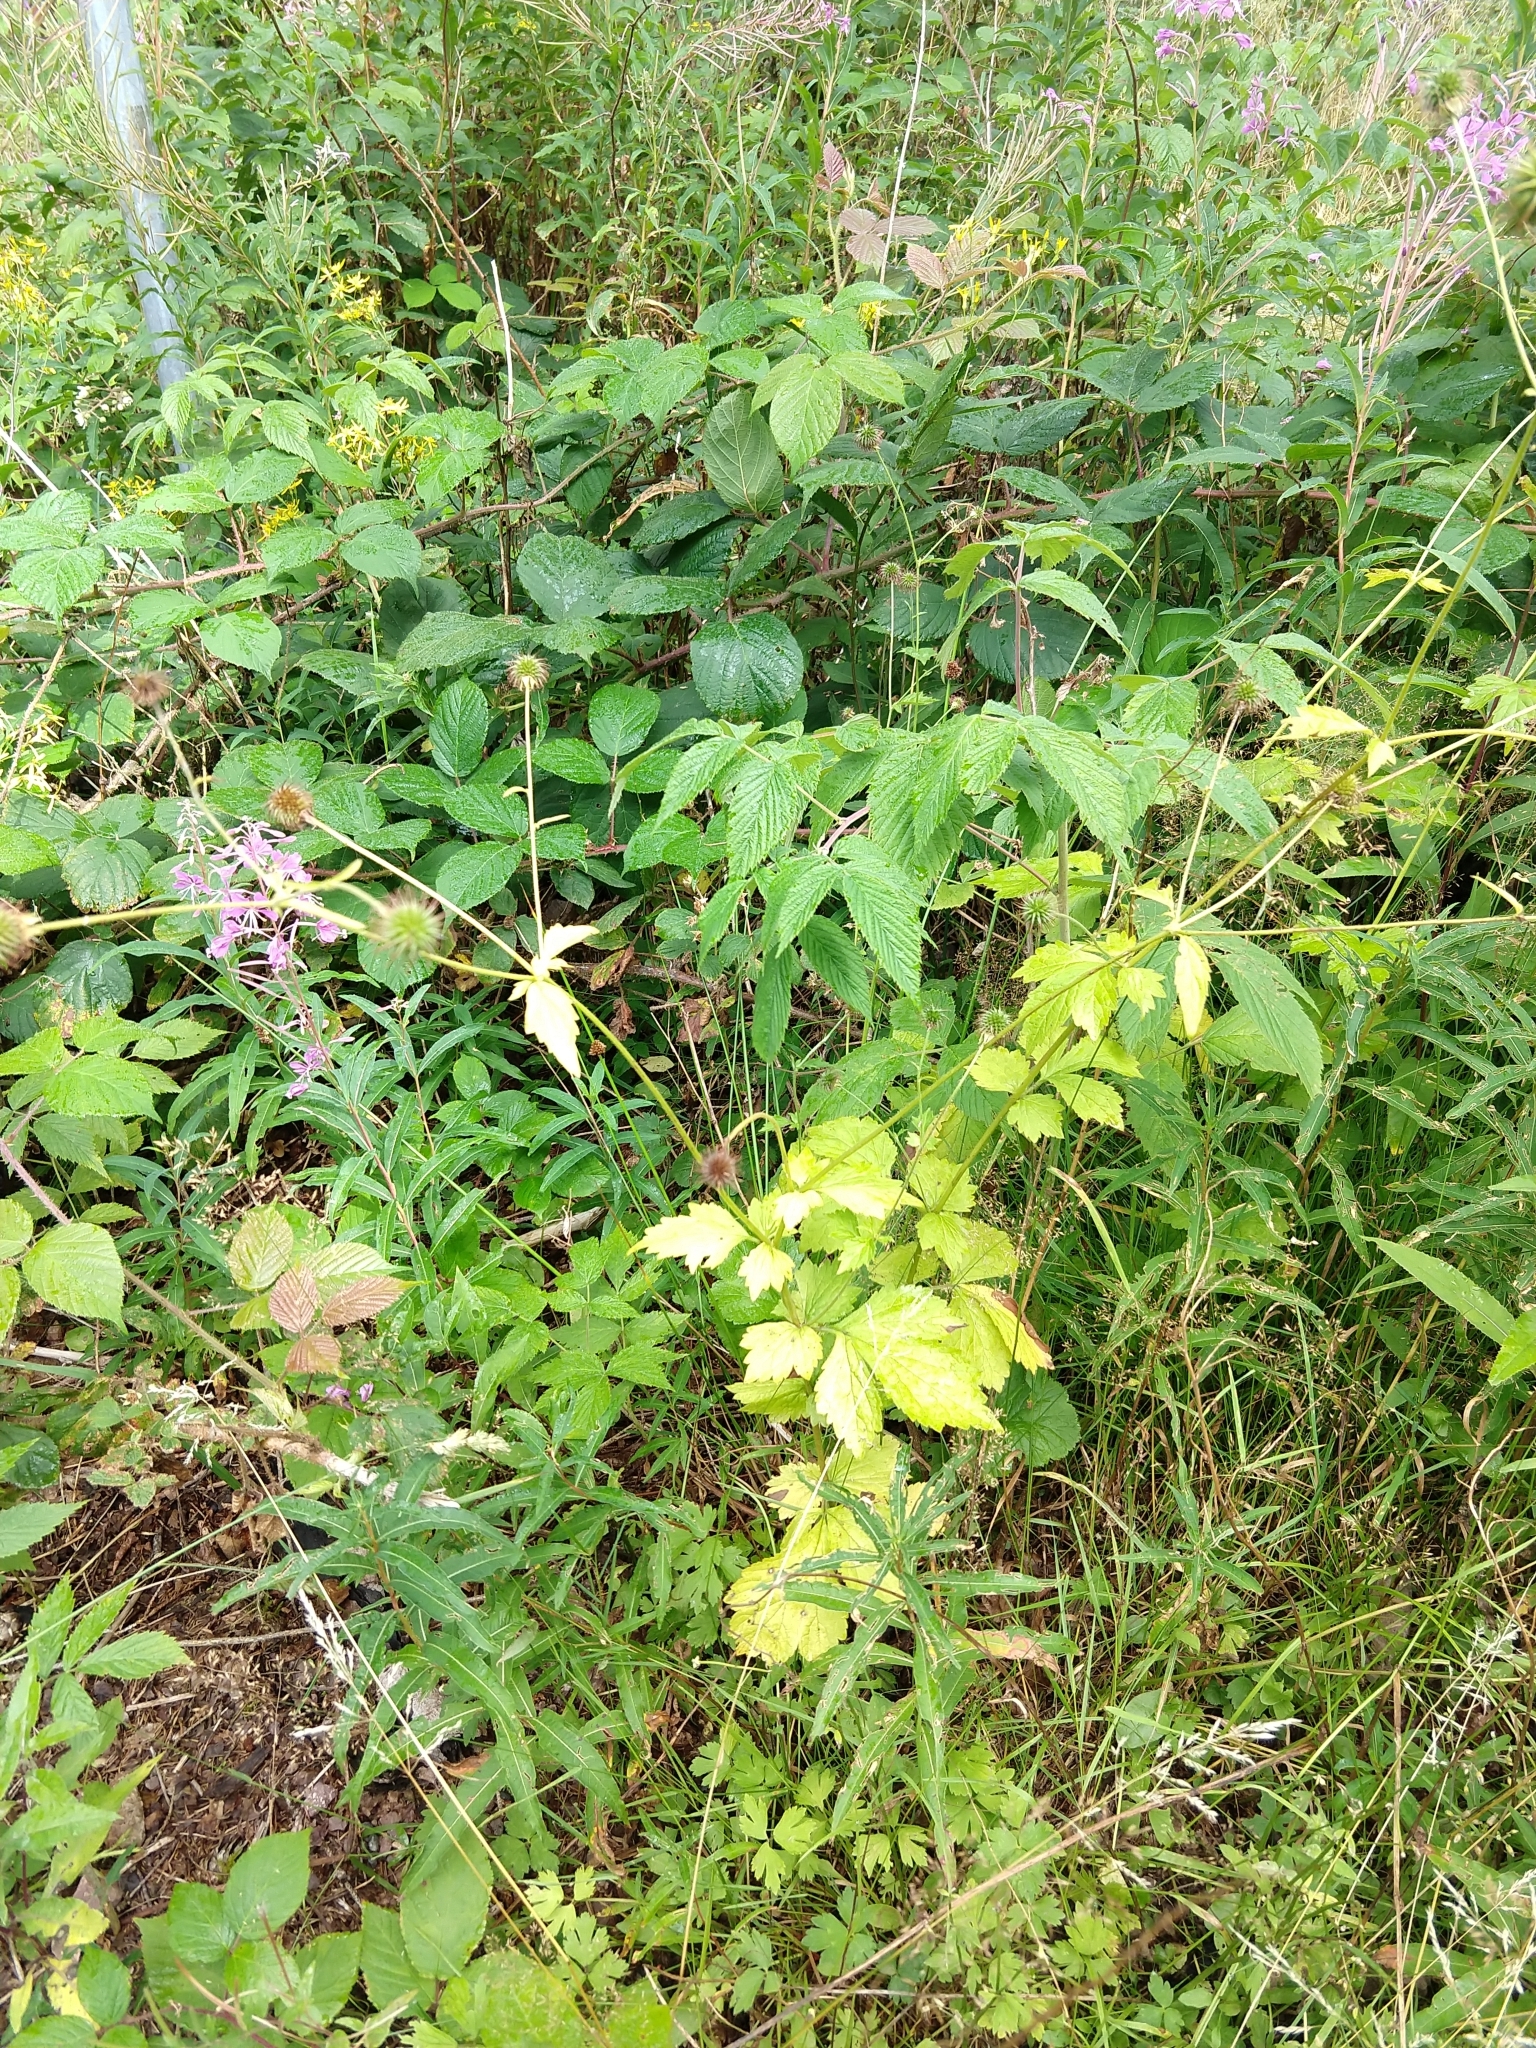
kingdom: Plantae
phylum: Tracheophyta
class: Magnoliopsida
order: Rosales
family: Rosaceae
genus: Geum
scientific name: Geum urbanum
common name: Wood avens
